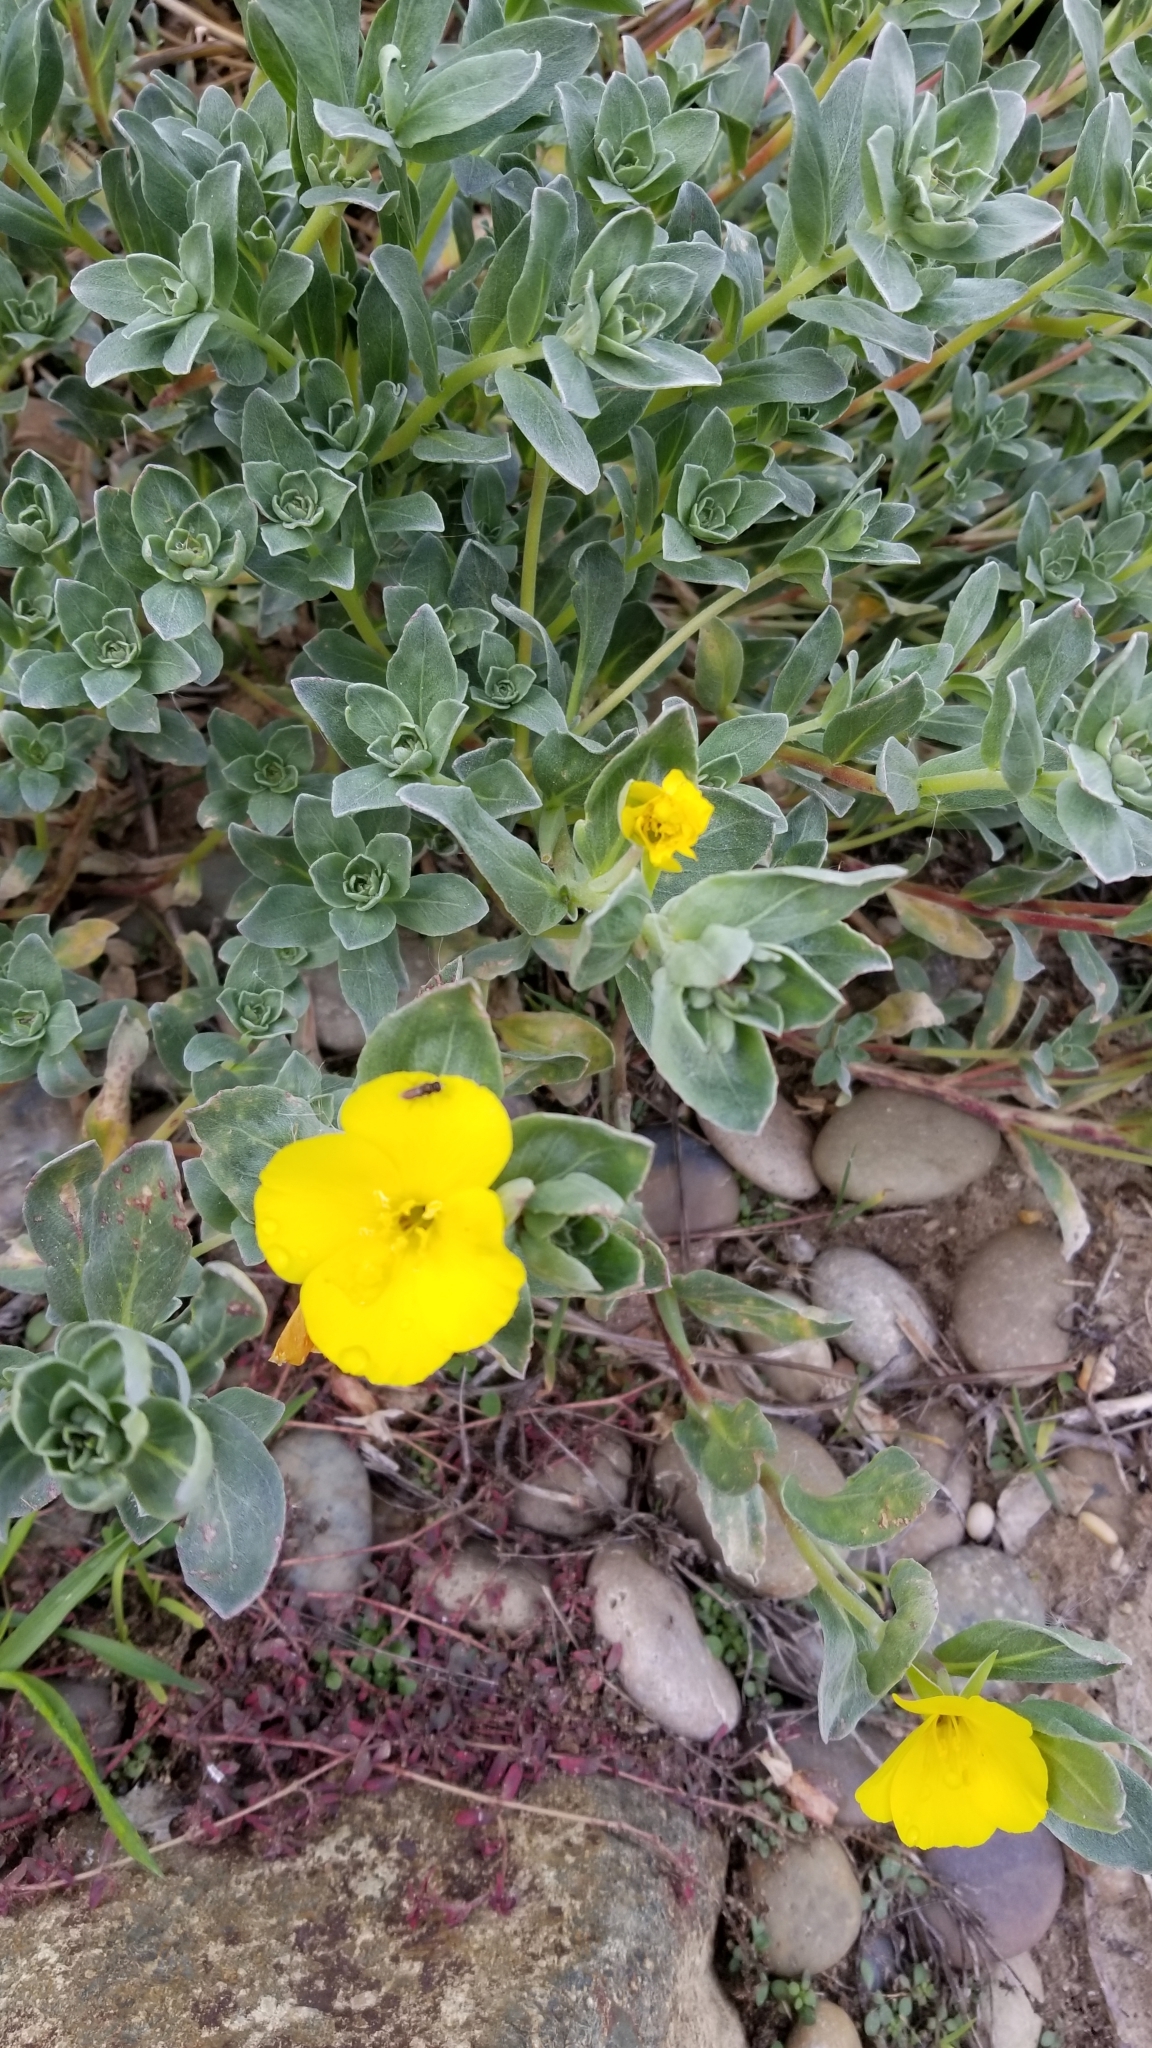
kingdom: Plantae
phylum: Tracheophyta
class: Magnoliopsida
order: Myrtales
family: Onagraceae
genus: Camissoniopsis
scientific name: Camissoniopsis cheiranthifolia
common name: Beach suncup
